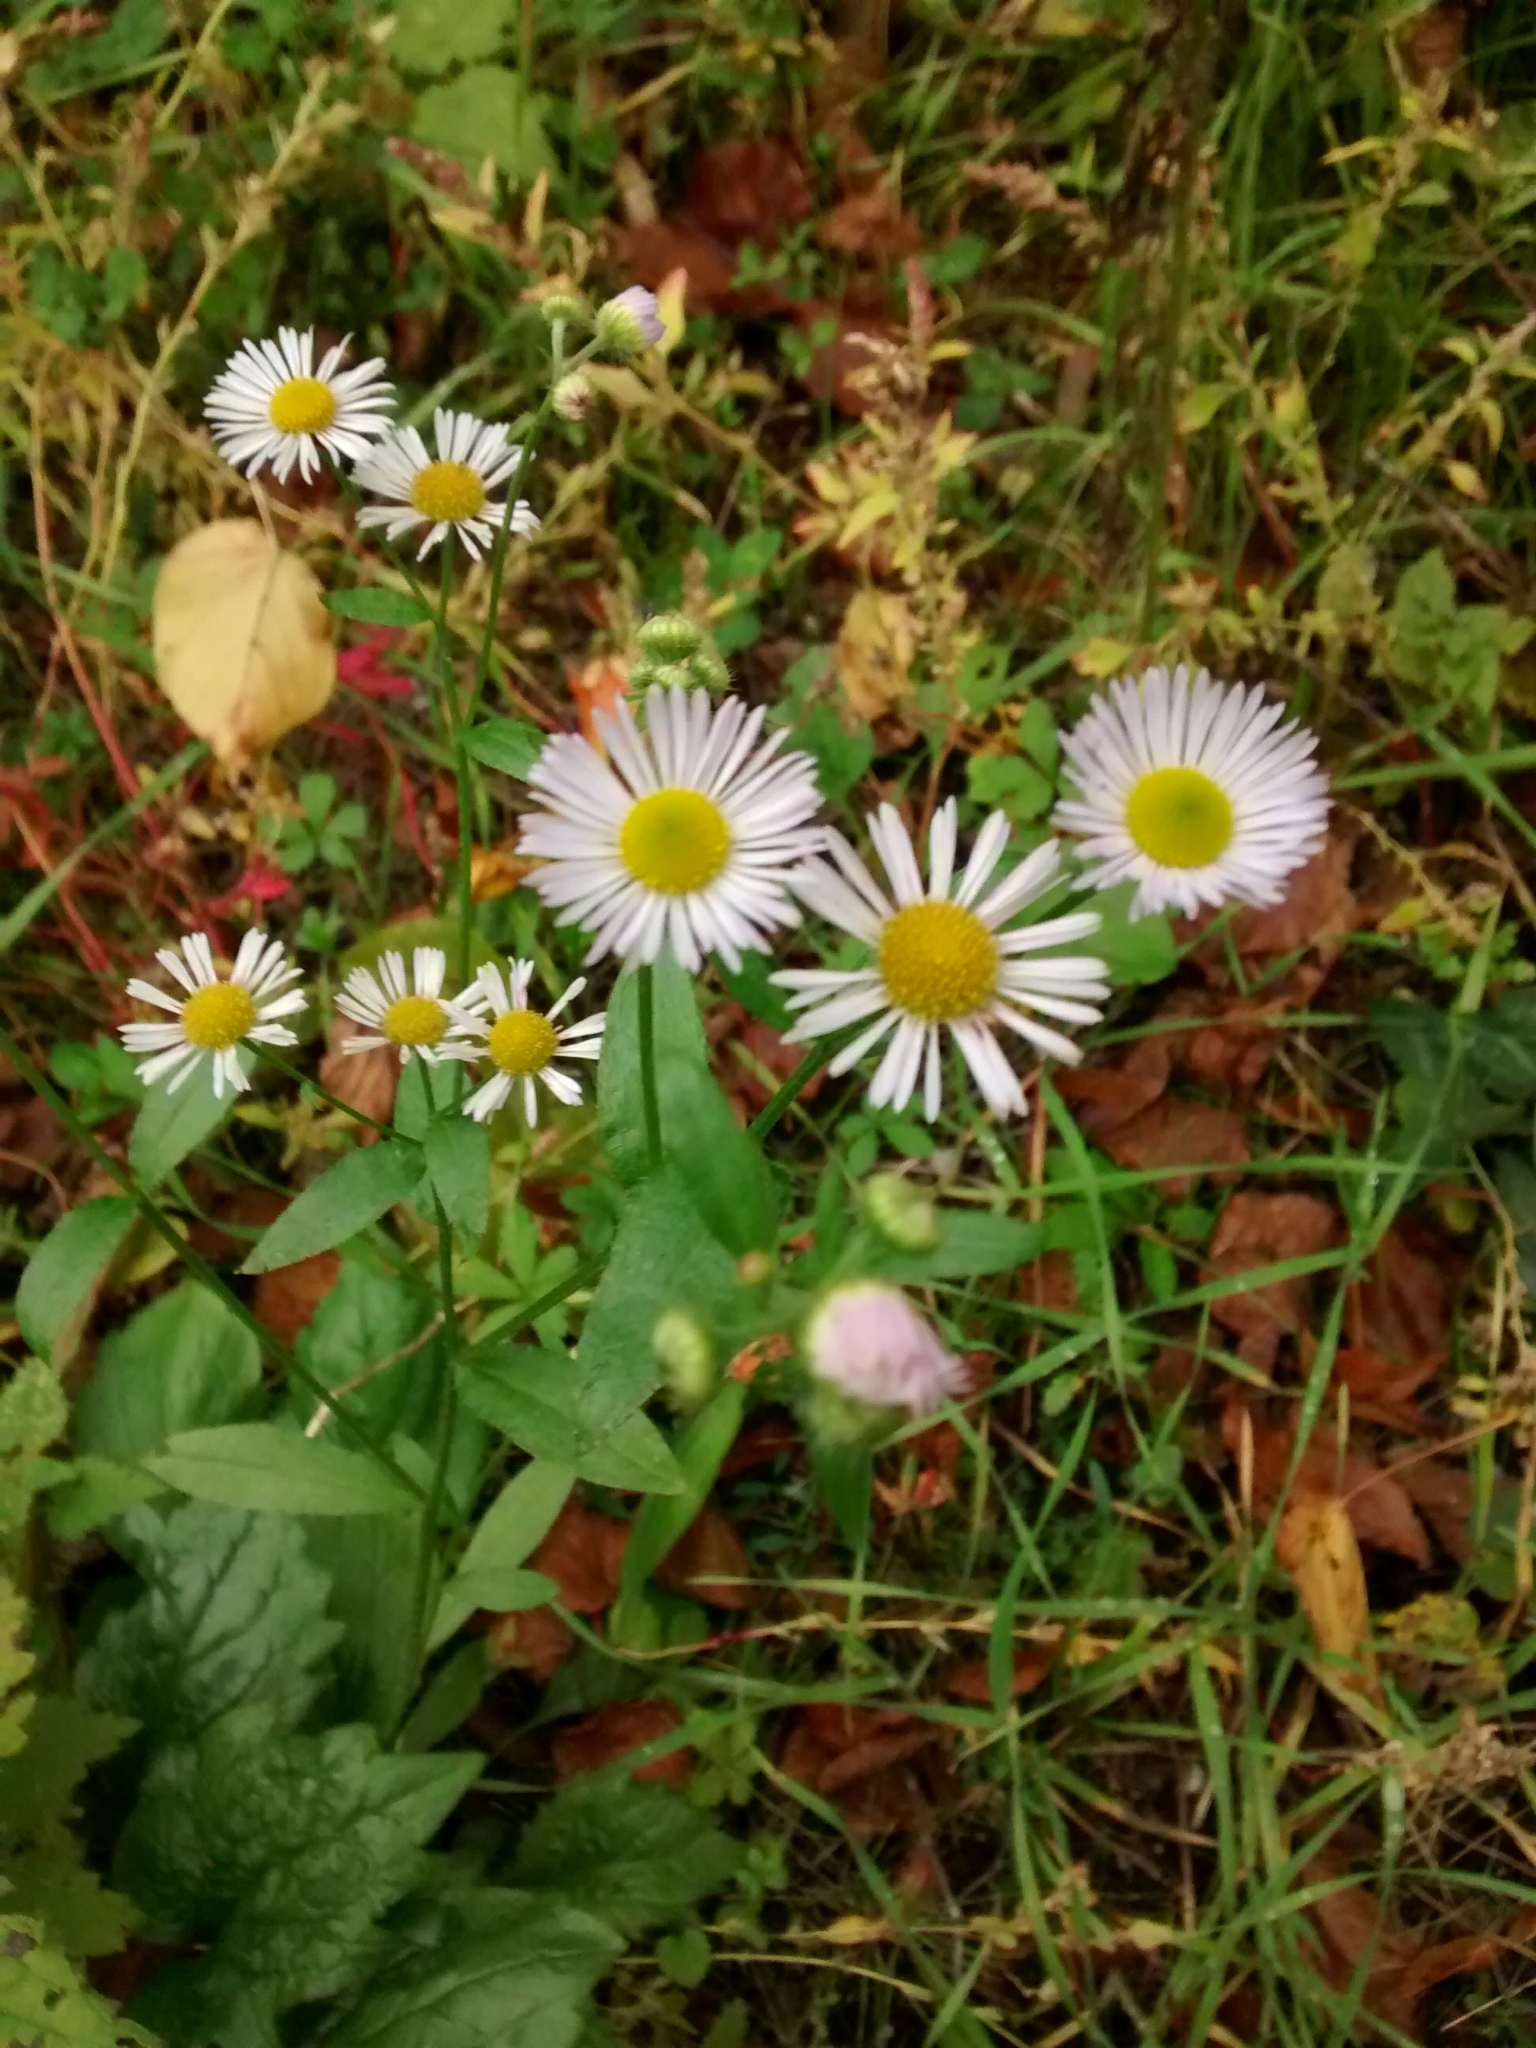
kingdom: Plantae
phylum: Tracheophyta
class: Magnoliopsida
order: Asterales
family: Asteraceae
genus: Erigeron
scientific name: Erigeron annuus
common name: Tall fleabane
